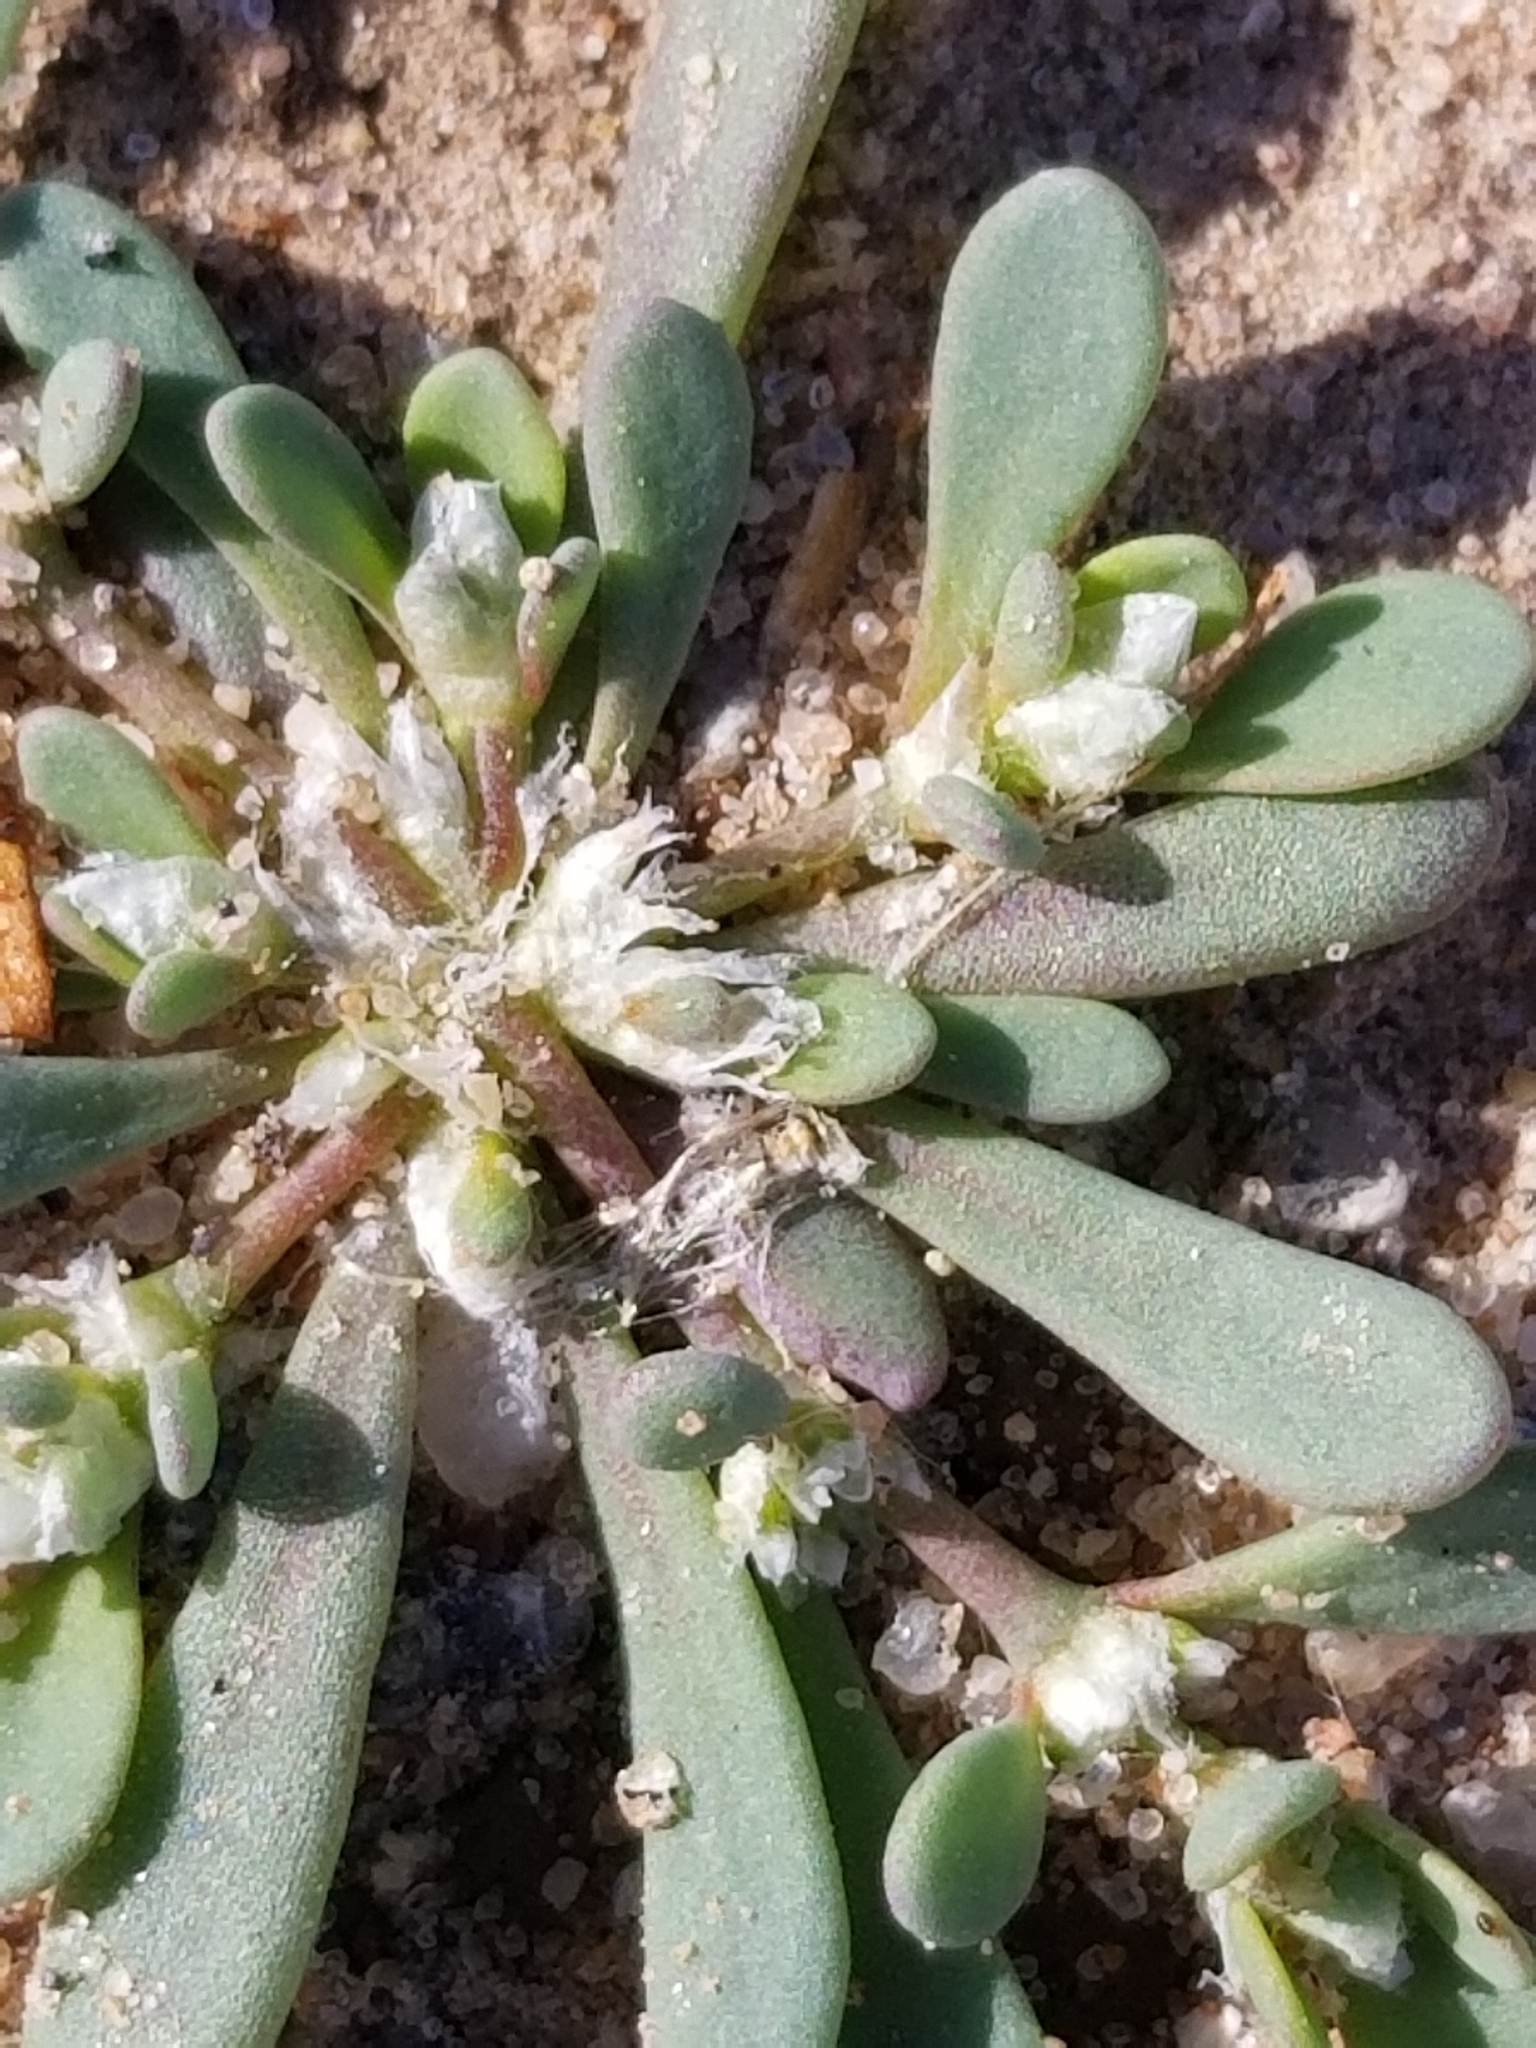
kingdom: Plantae
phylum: Tracheophyta
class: Magnoliopsida
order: Caryophyllales
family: Caryophyllaceae
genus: Achyronychia
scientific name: Achyronychia cooperi
